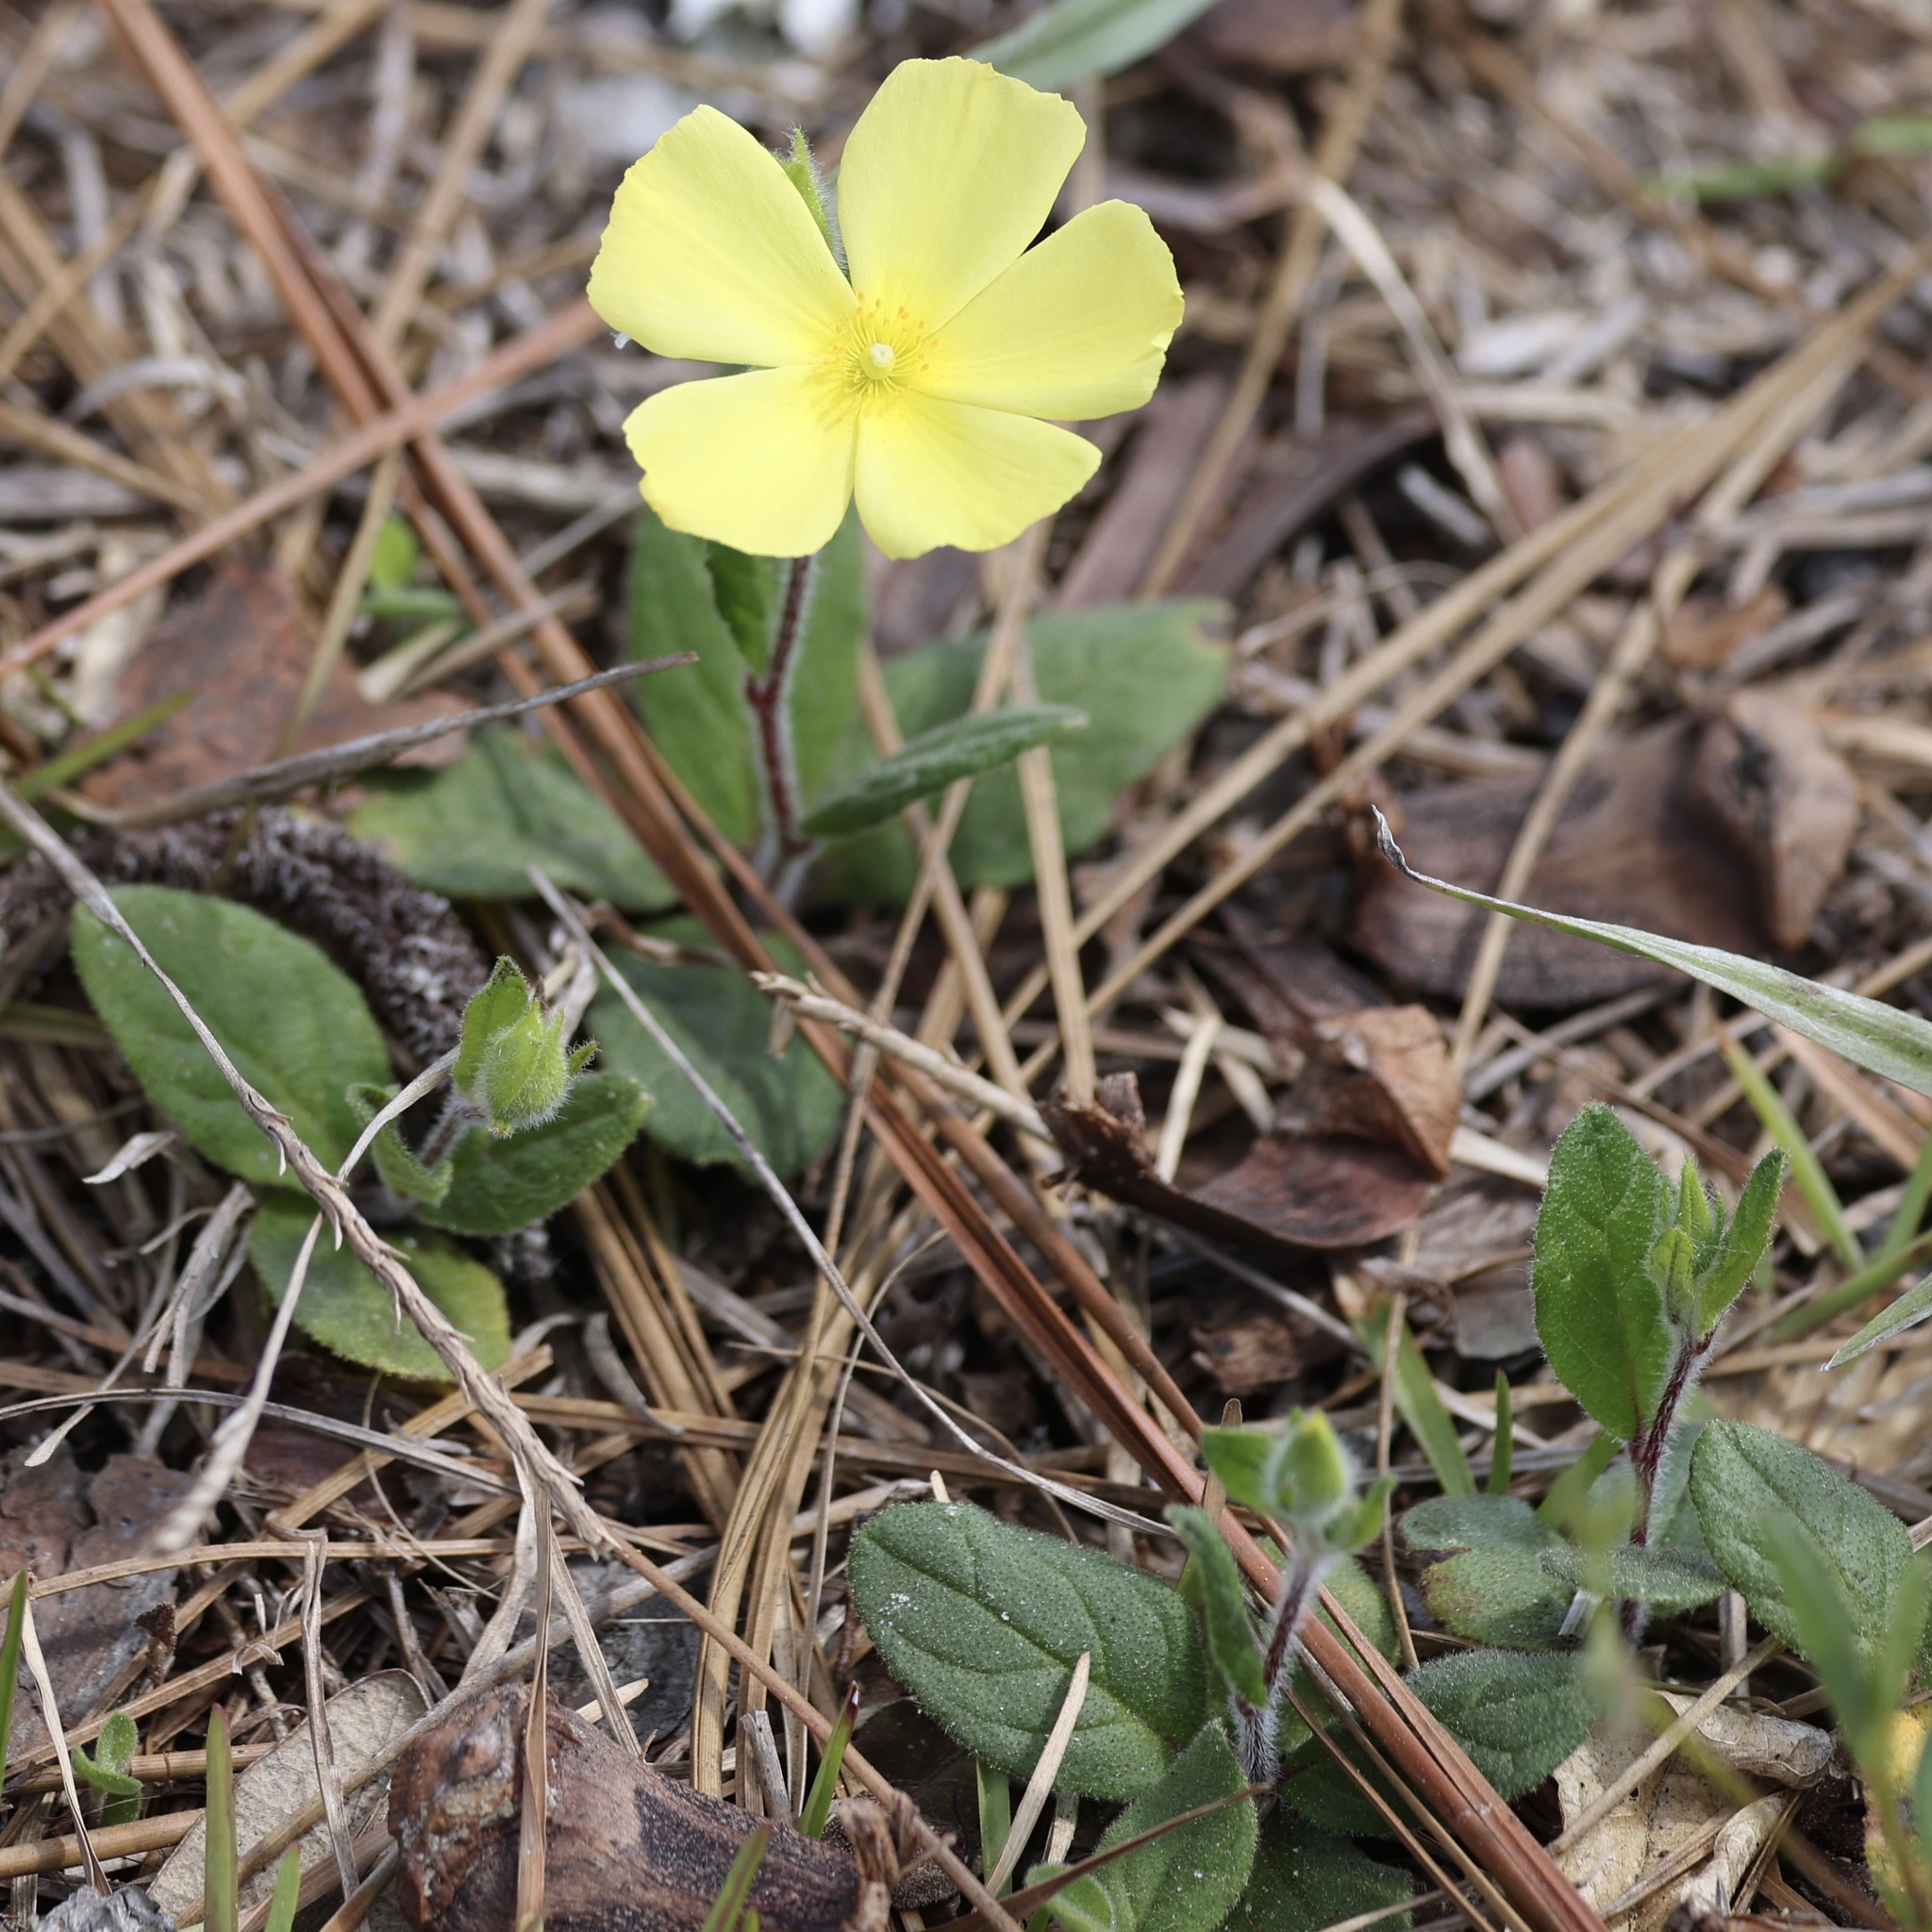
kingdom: Plantae
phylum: Tracheophyta
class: Magnoliopsida
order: Malvales
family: Cistaceae
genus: Crocanthemum
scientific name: Crocanthemum carolinianum
